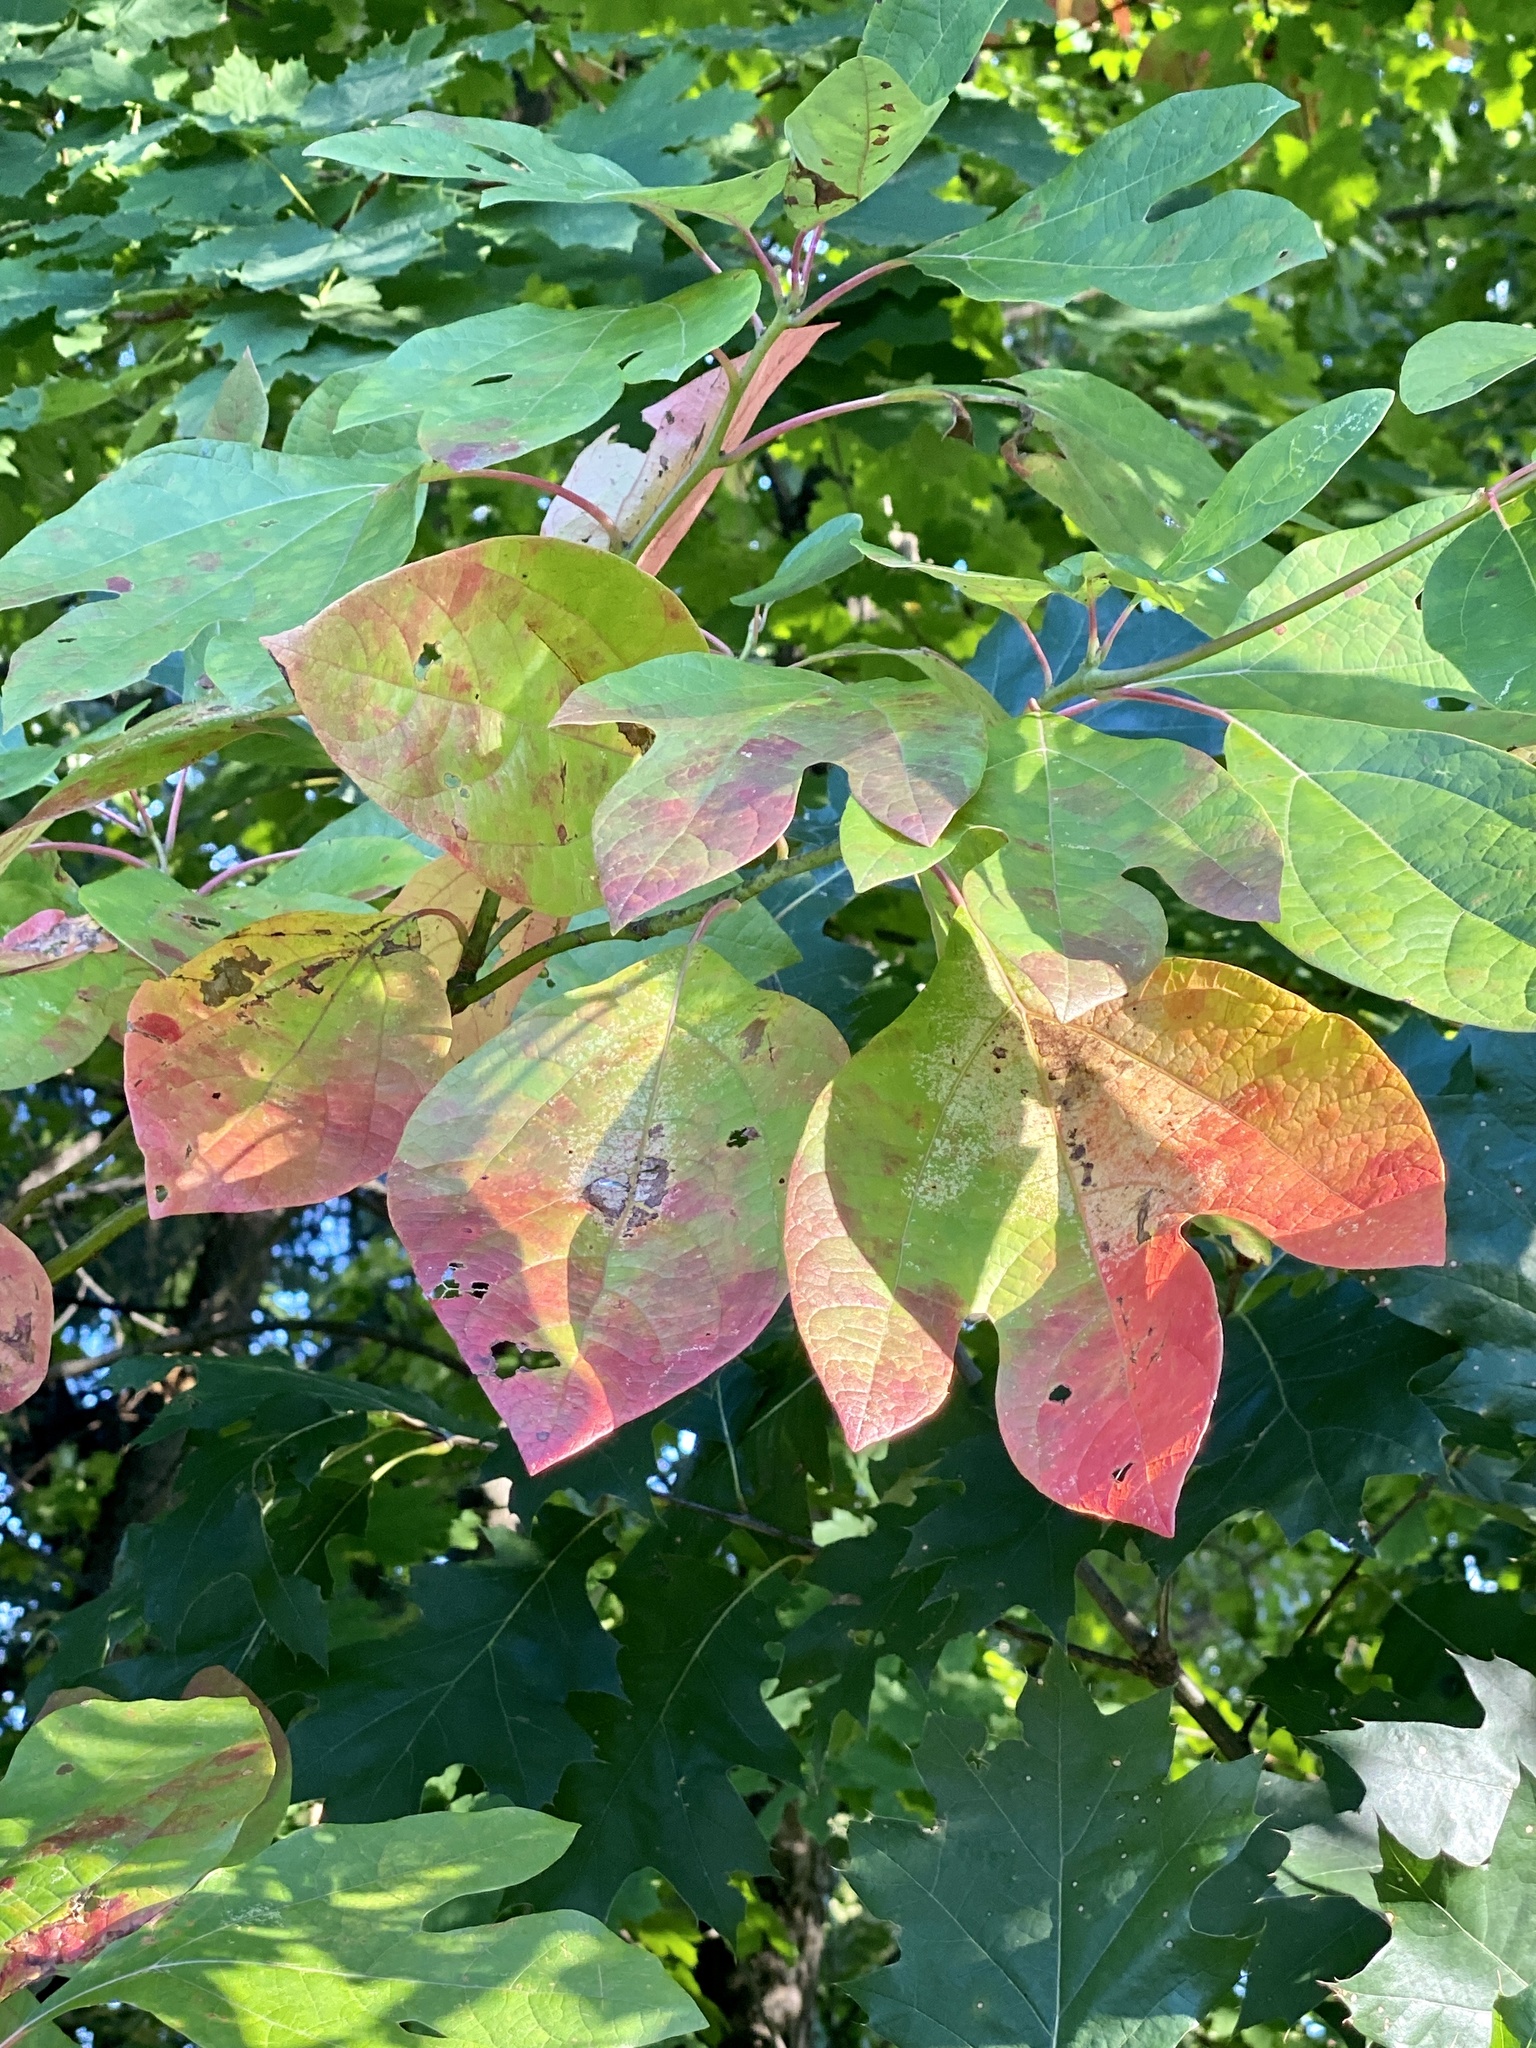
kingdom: Plantae
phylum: Tracheophyta
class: Magnoliopsida
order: Laurales
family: Lauraceae
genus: Sassafras
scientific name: Sassafras albidum
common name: Sassafras
